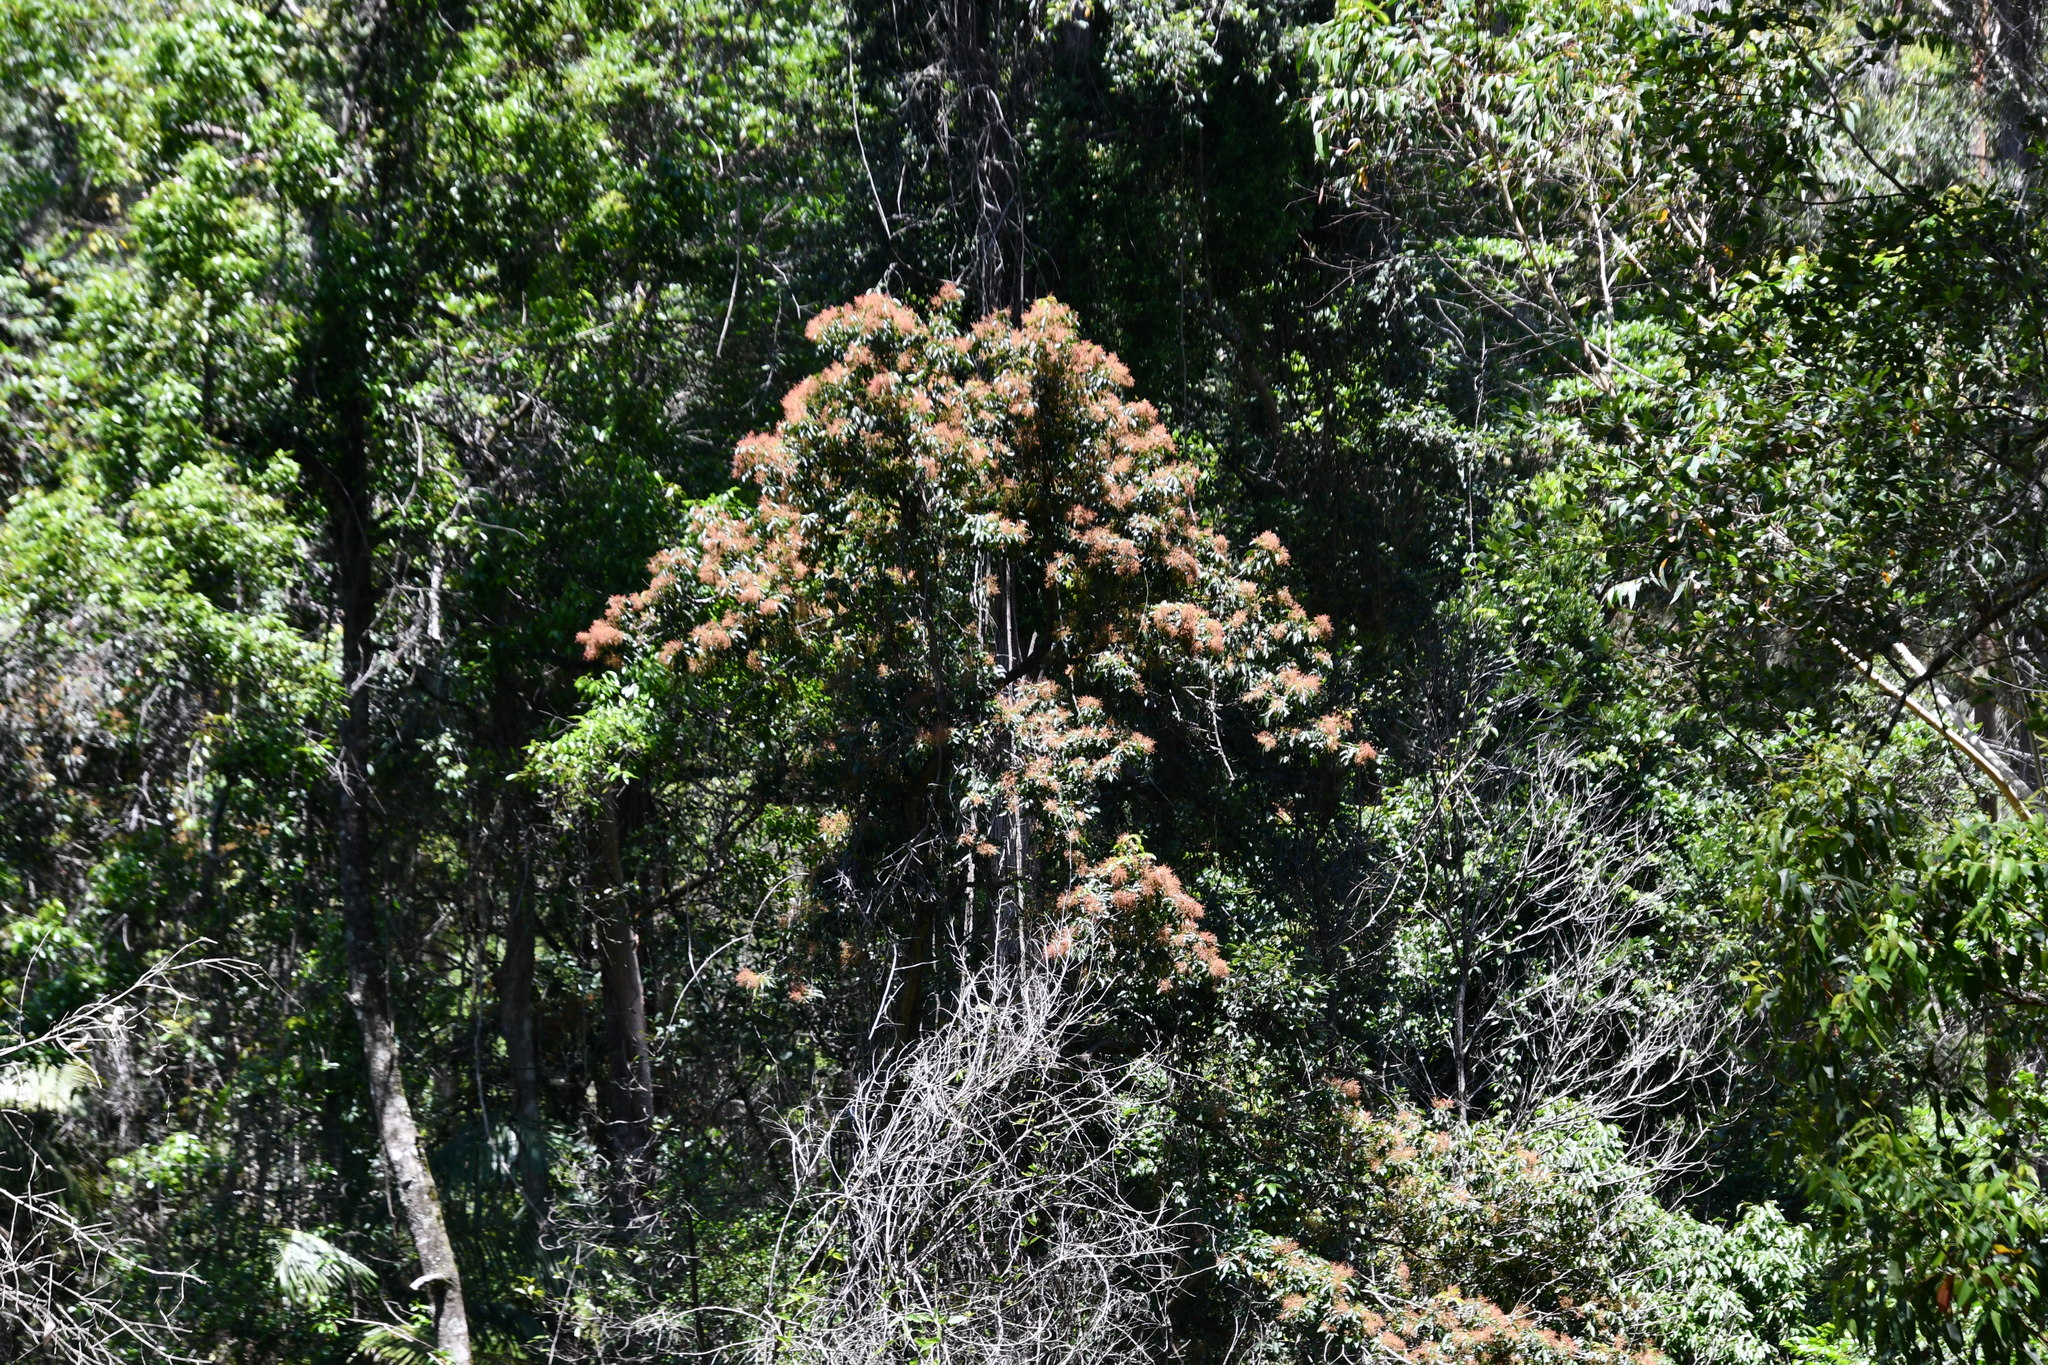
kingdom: Plantae
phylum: Tracheophyta
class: Magnoliopsida
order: Oxalidales
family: Cunoniaceae
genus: Ackama
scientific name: Ackama paniculosa
